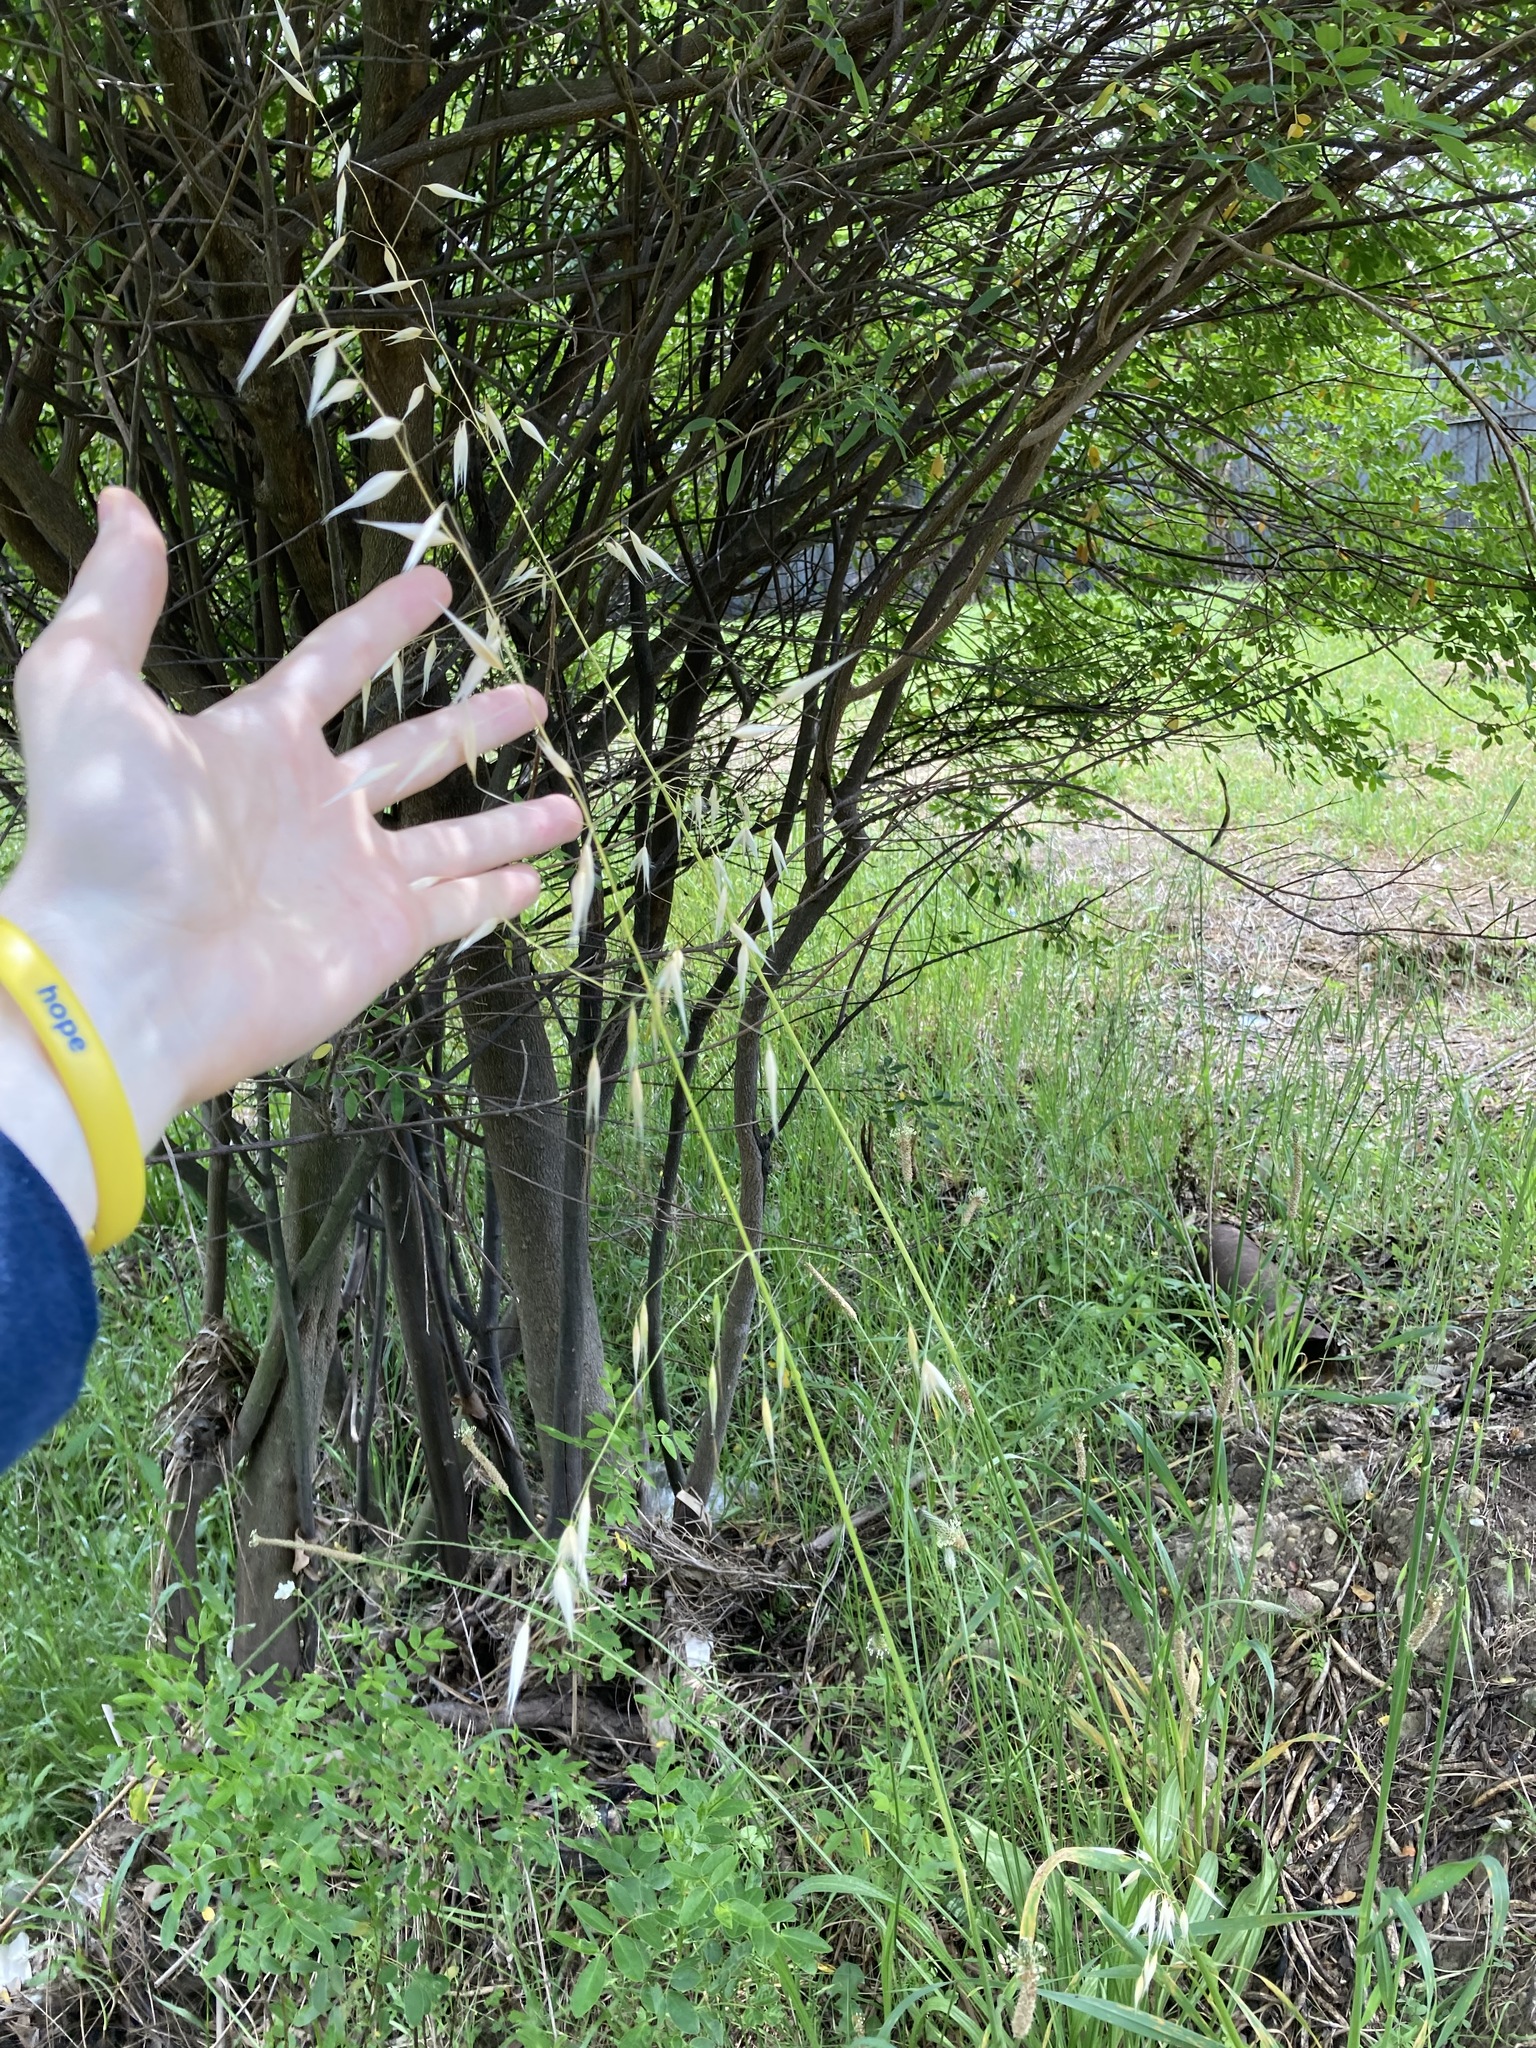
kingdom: Plantae
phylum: Tracheophyta
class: Liliopsida
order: Poales
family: Poaceae
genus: Avena
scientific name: Avena barbata
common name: Slender oat
